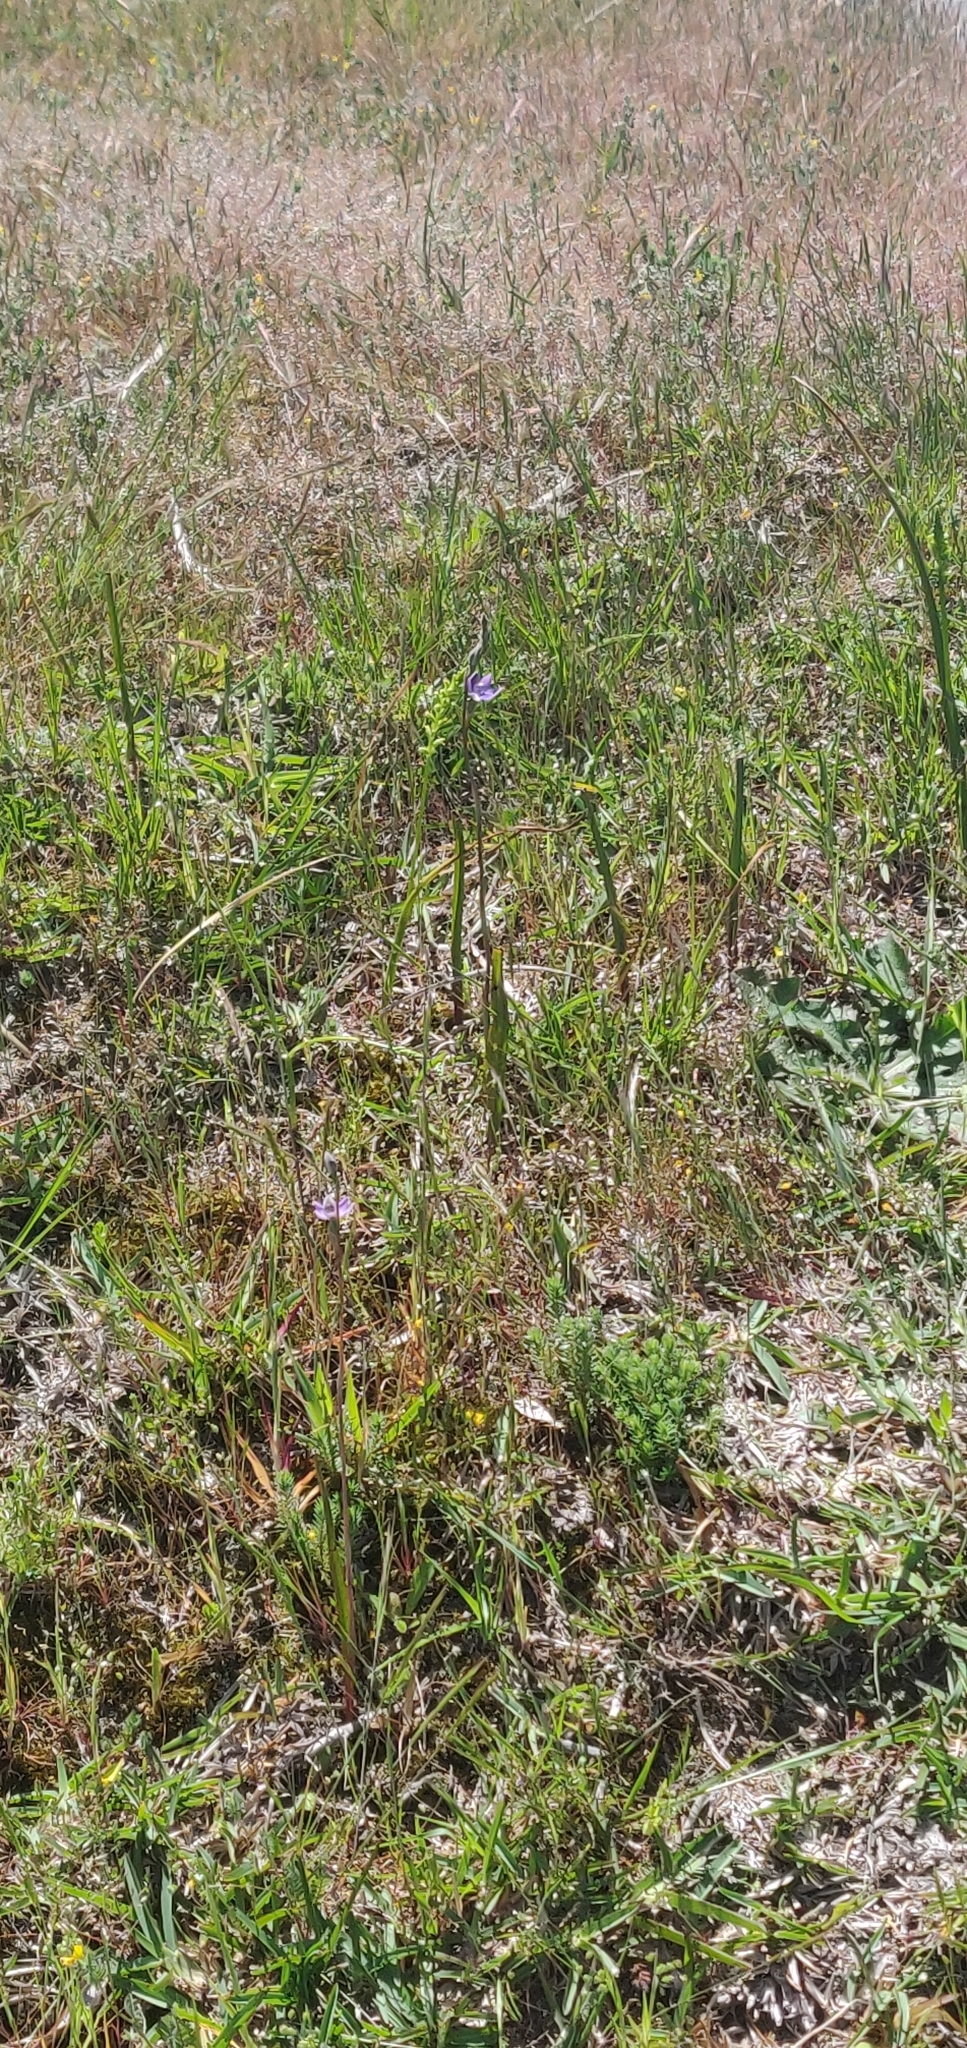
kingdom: Plantae
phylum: Tracheophyta
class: Liliopsida
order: Asparagales
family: Orchidaceae
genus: Microtis
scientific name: Microtis unifolia
